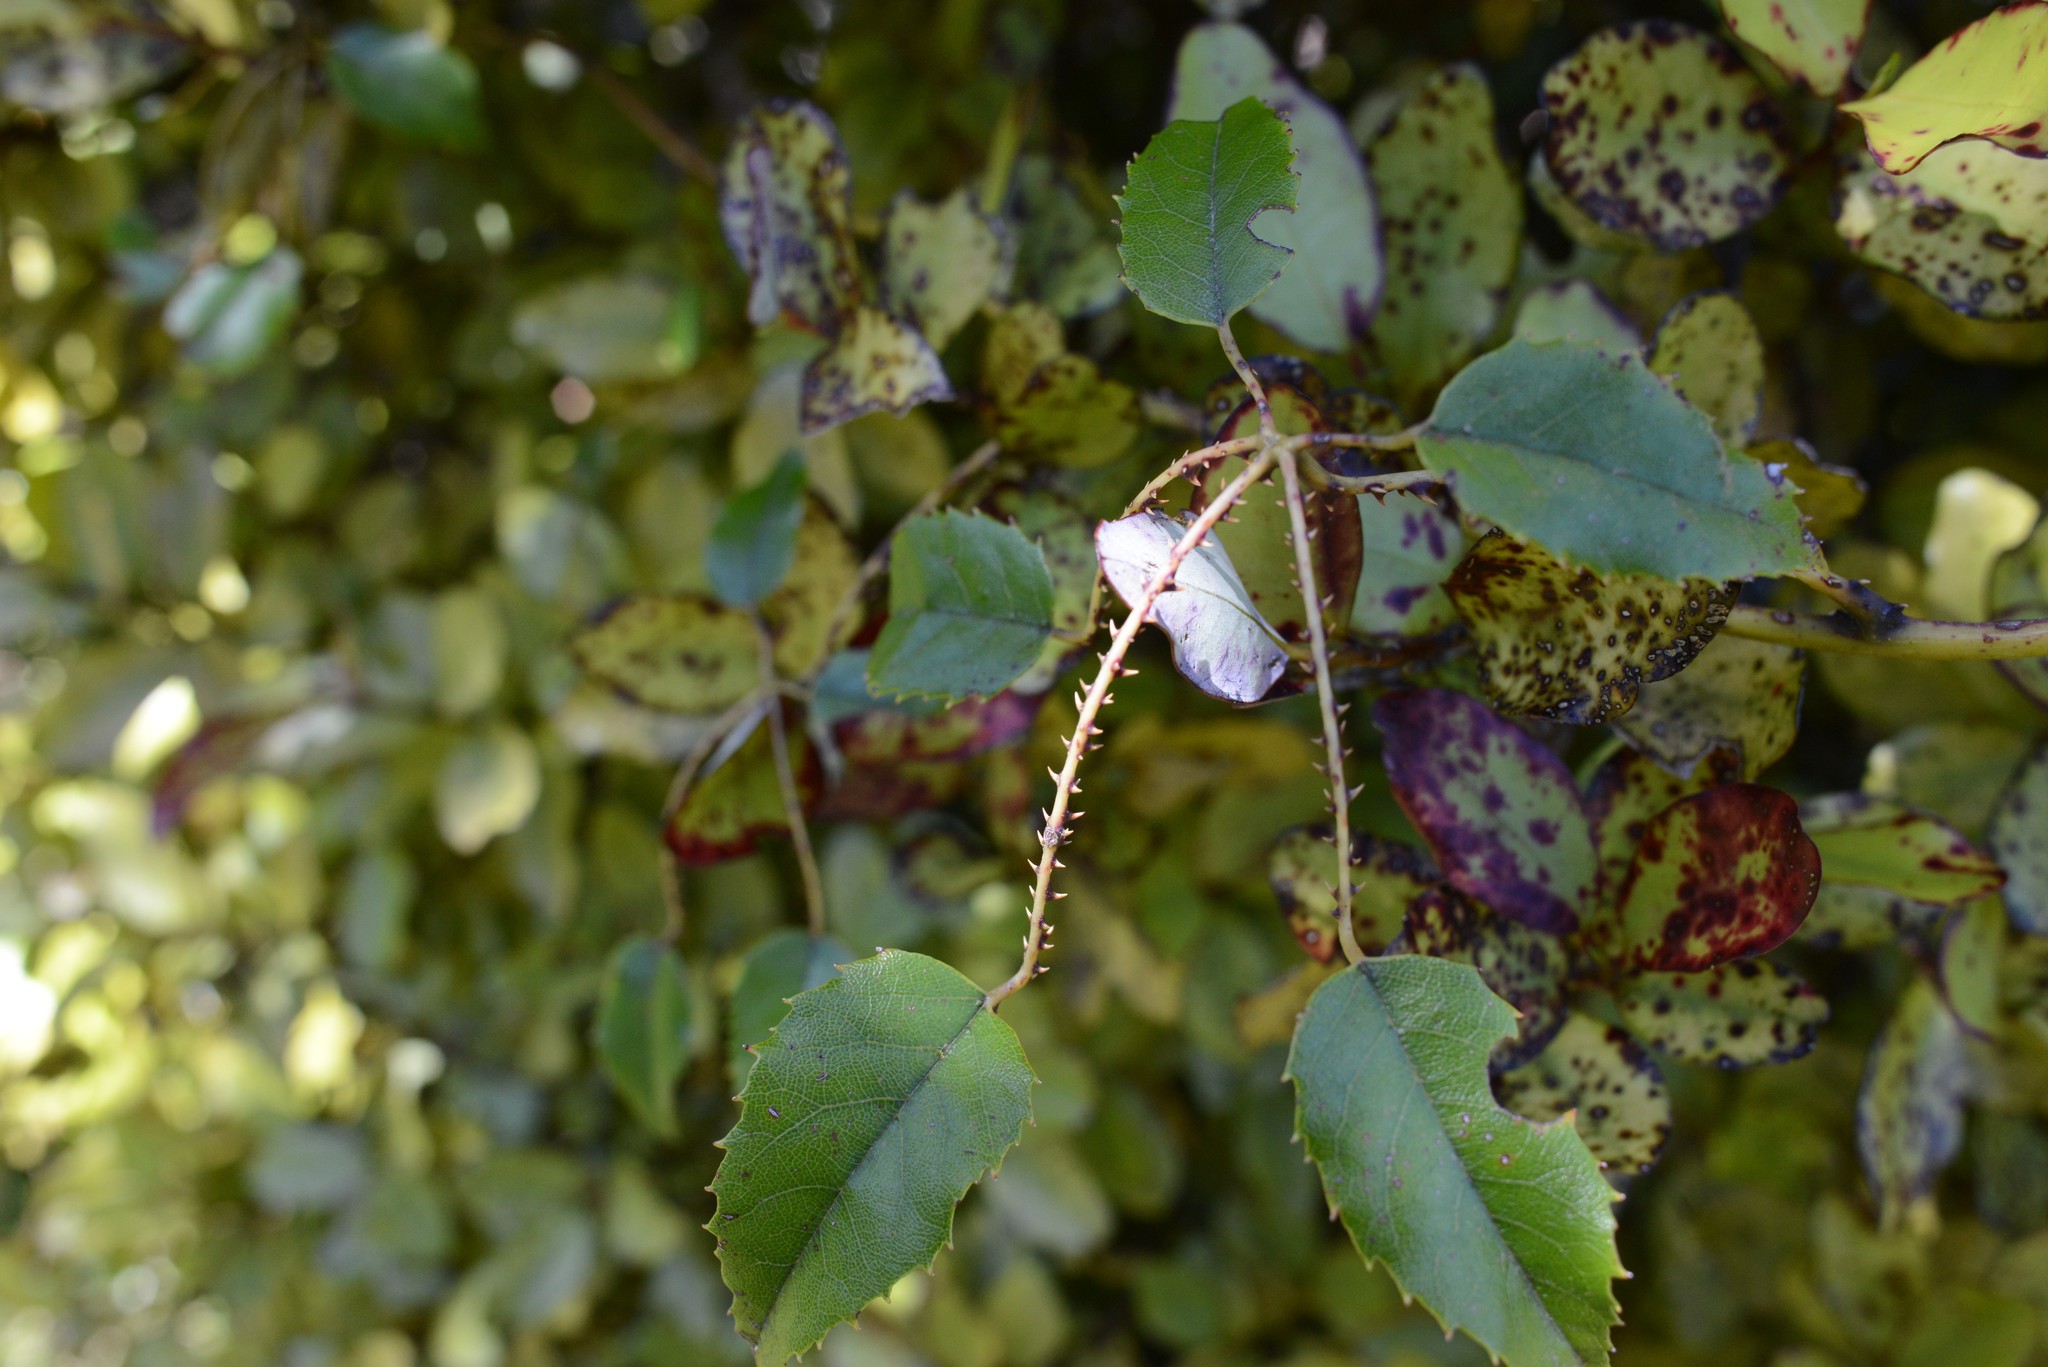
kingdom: Plantae
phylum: Tracheophyta
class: Magnoliopsida
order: Rosales
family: Rosaceae
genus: Rubus
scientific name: Rubus cissoides
